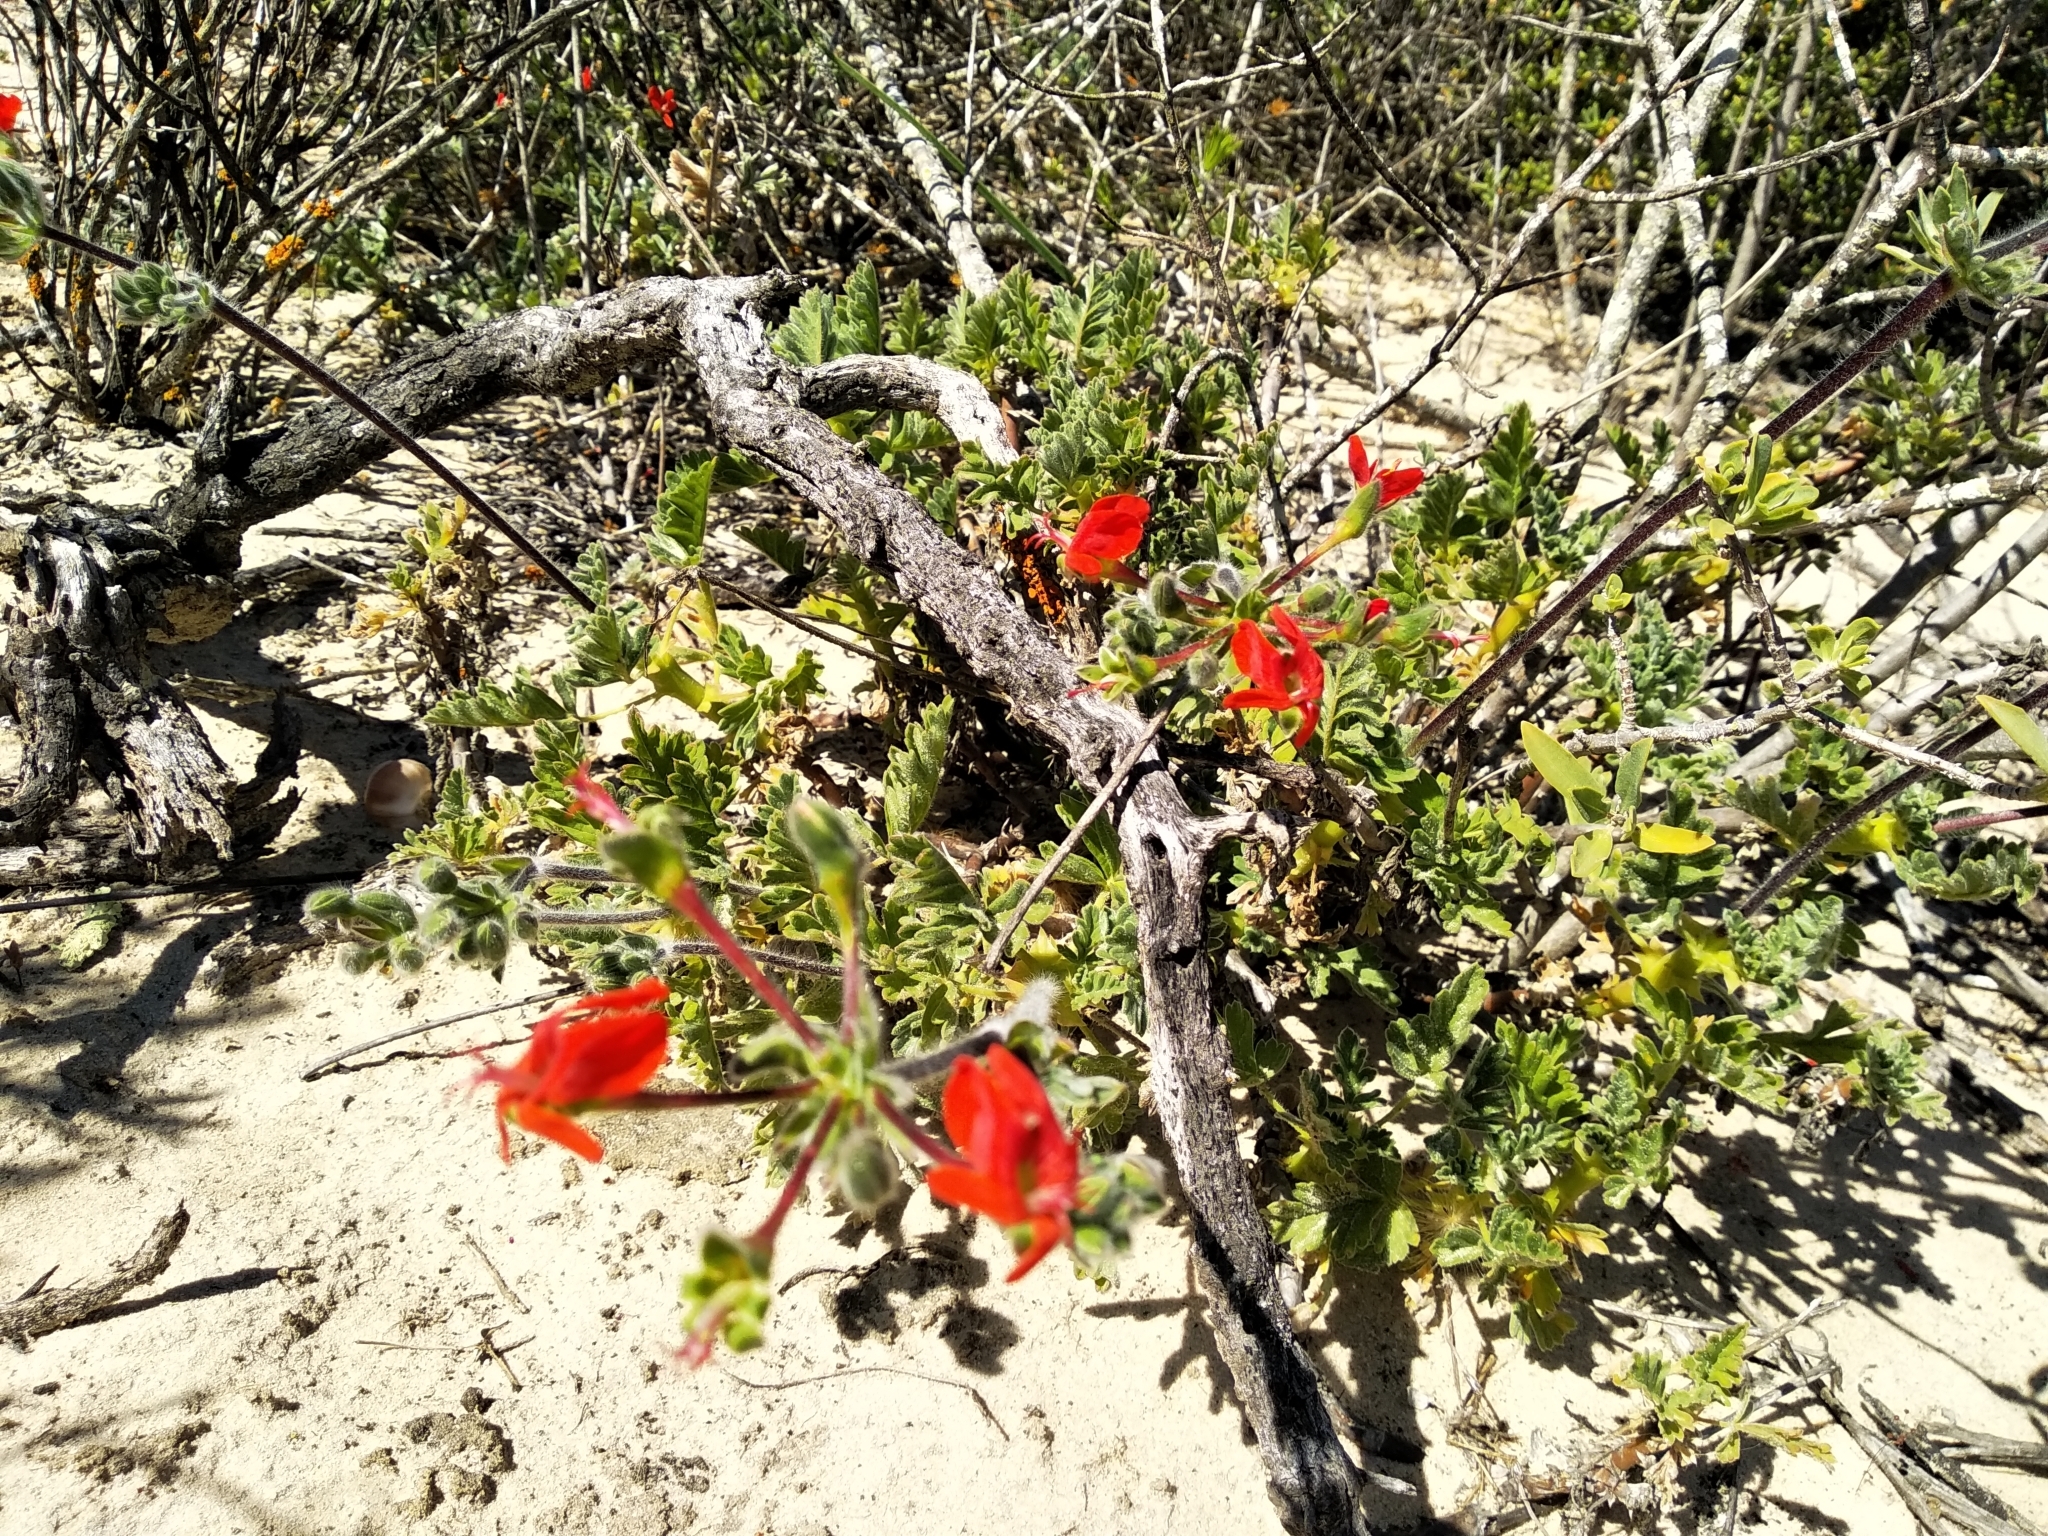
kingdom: Plantae
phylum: Tracheophyta
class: Magnoliopsida
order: Geraniales
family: Geraniaceae
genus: Pelargonium
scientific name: Pelargonium fulgidum
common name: Celandine-leaf pelargonium
